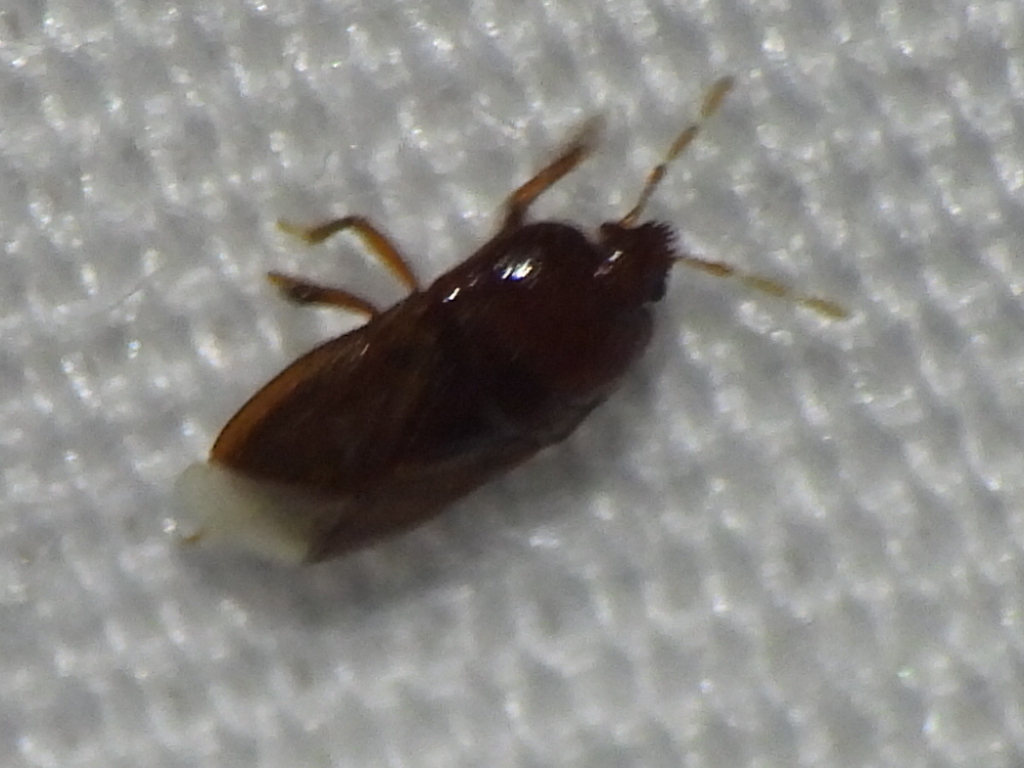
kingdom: Animalia
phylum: Arthropoda
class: Insecta
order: Hemiptera
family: Cydnidae
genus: Amnestus
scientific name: Amnestus
